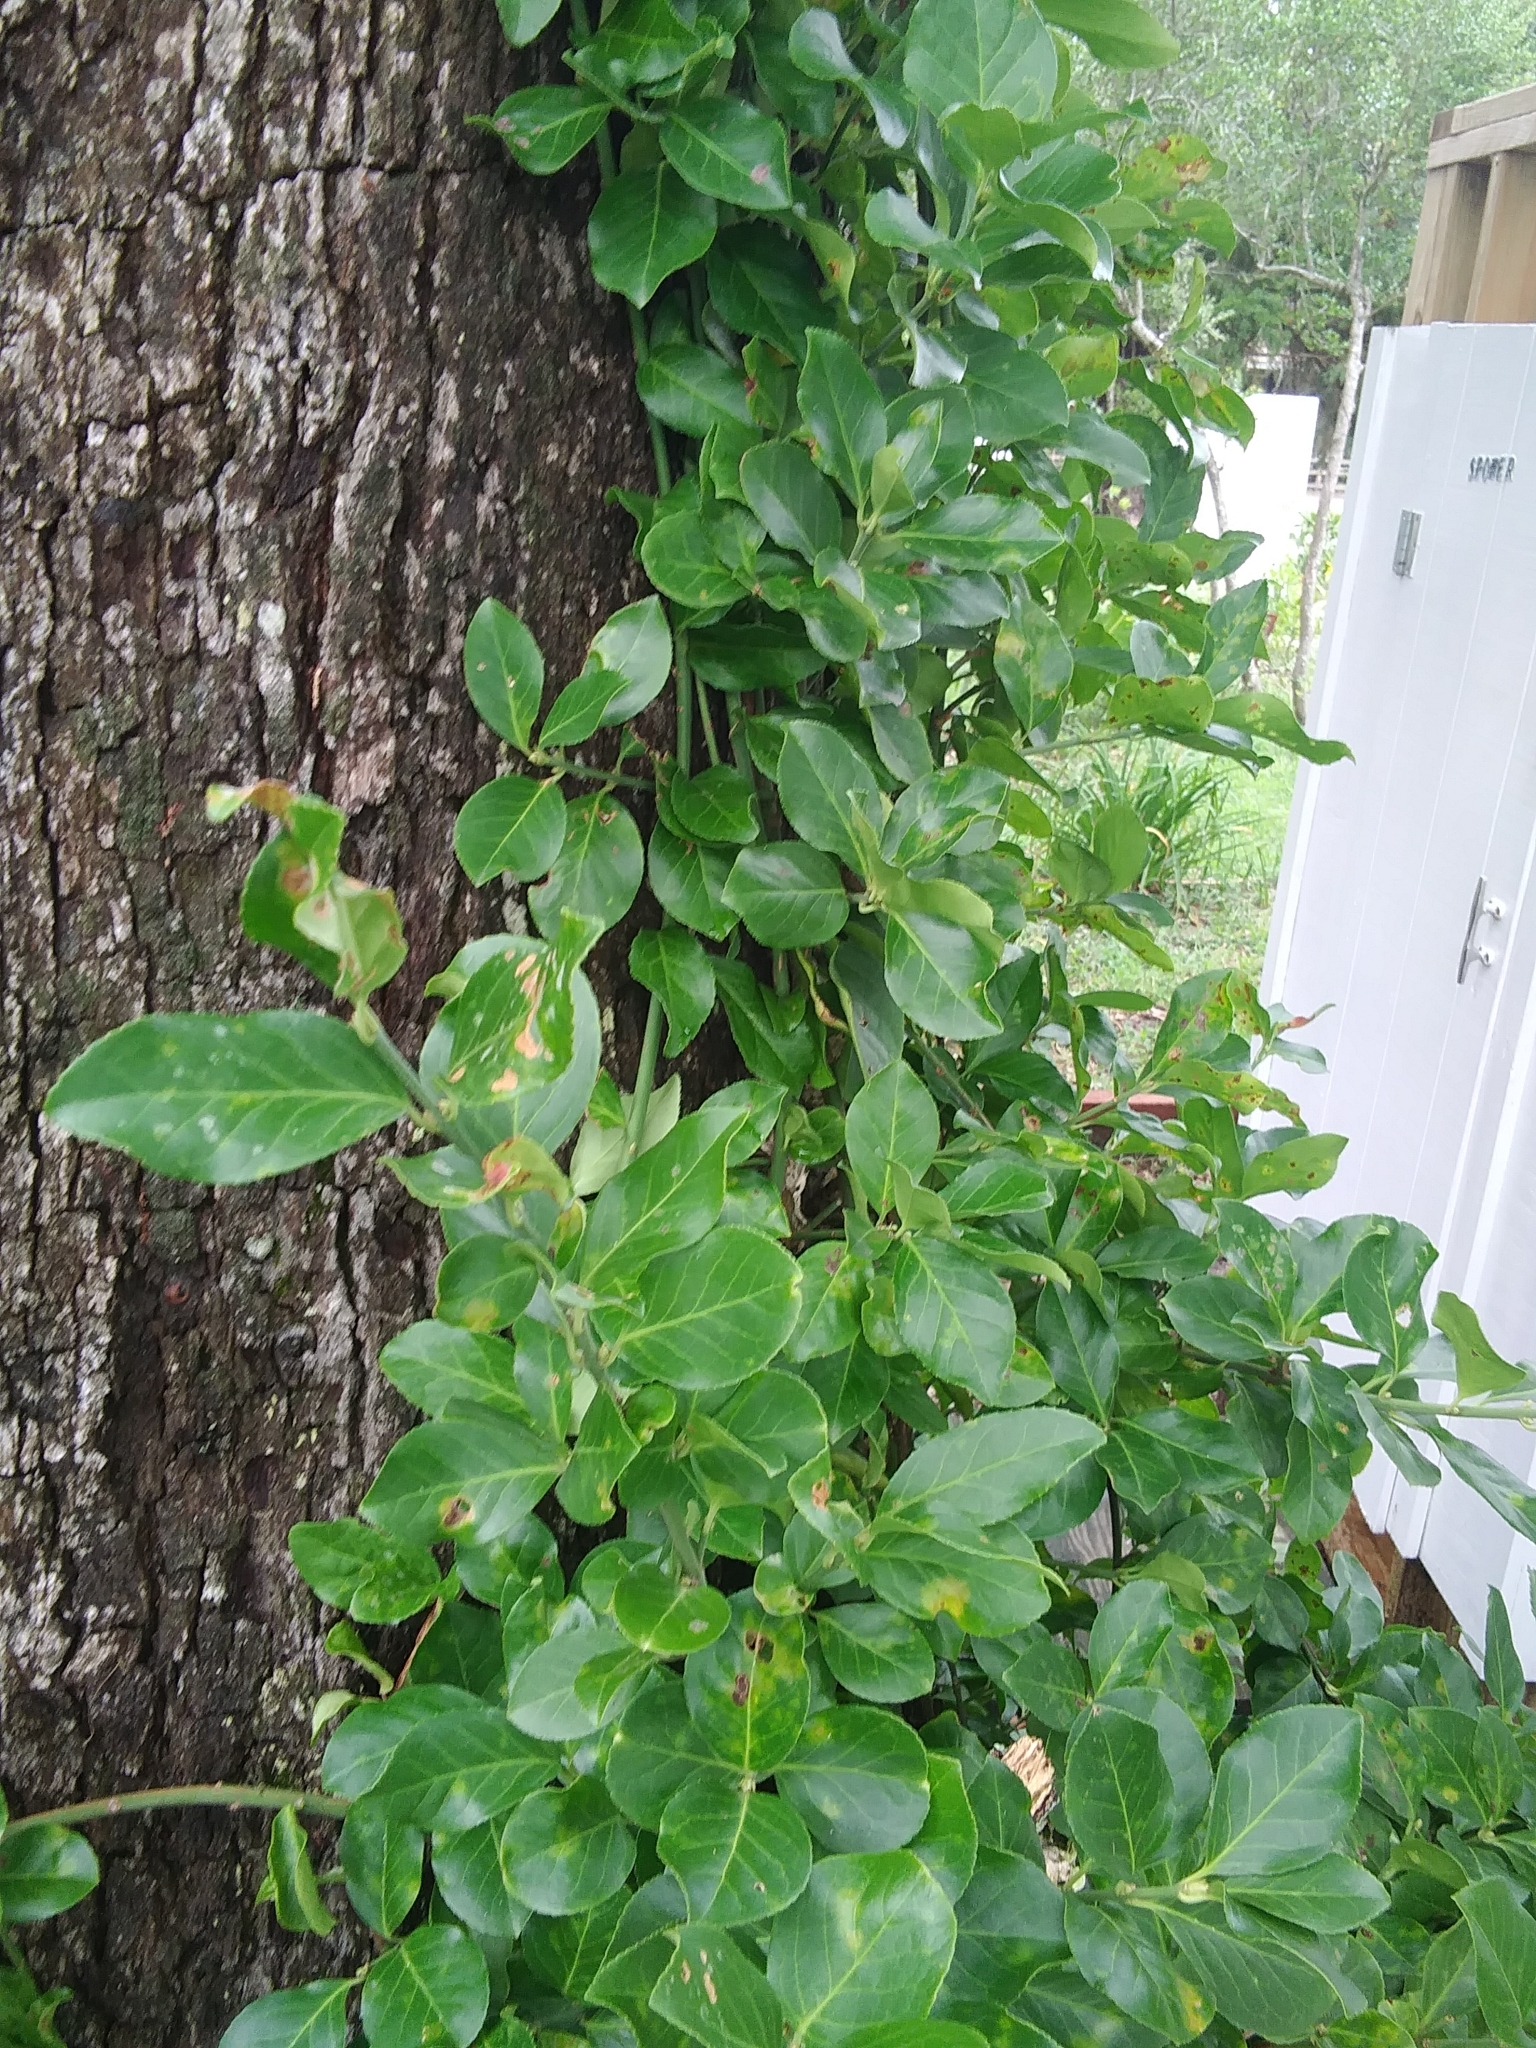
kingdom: Plantae
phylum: Tracheophyta
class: Magnoliopsida
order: Celastrales
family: Celastraceae
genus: Euonymus
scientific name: Euonymus fortunei
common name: Climbing euonymus
